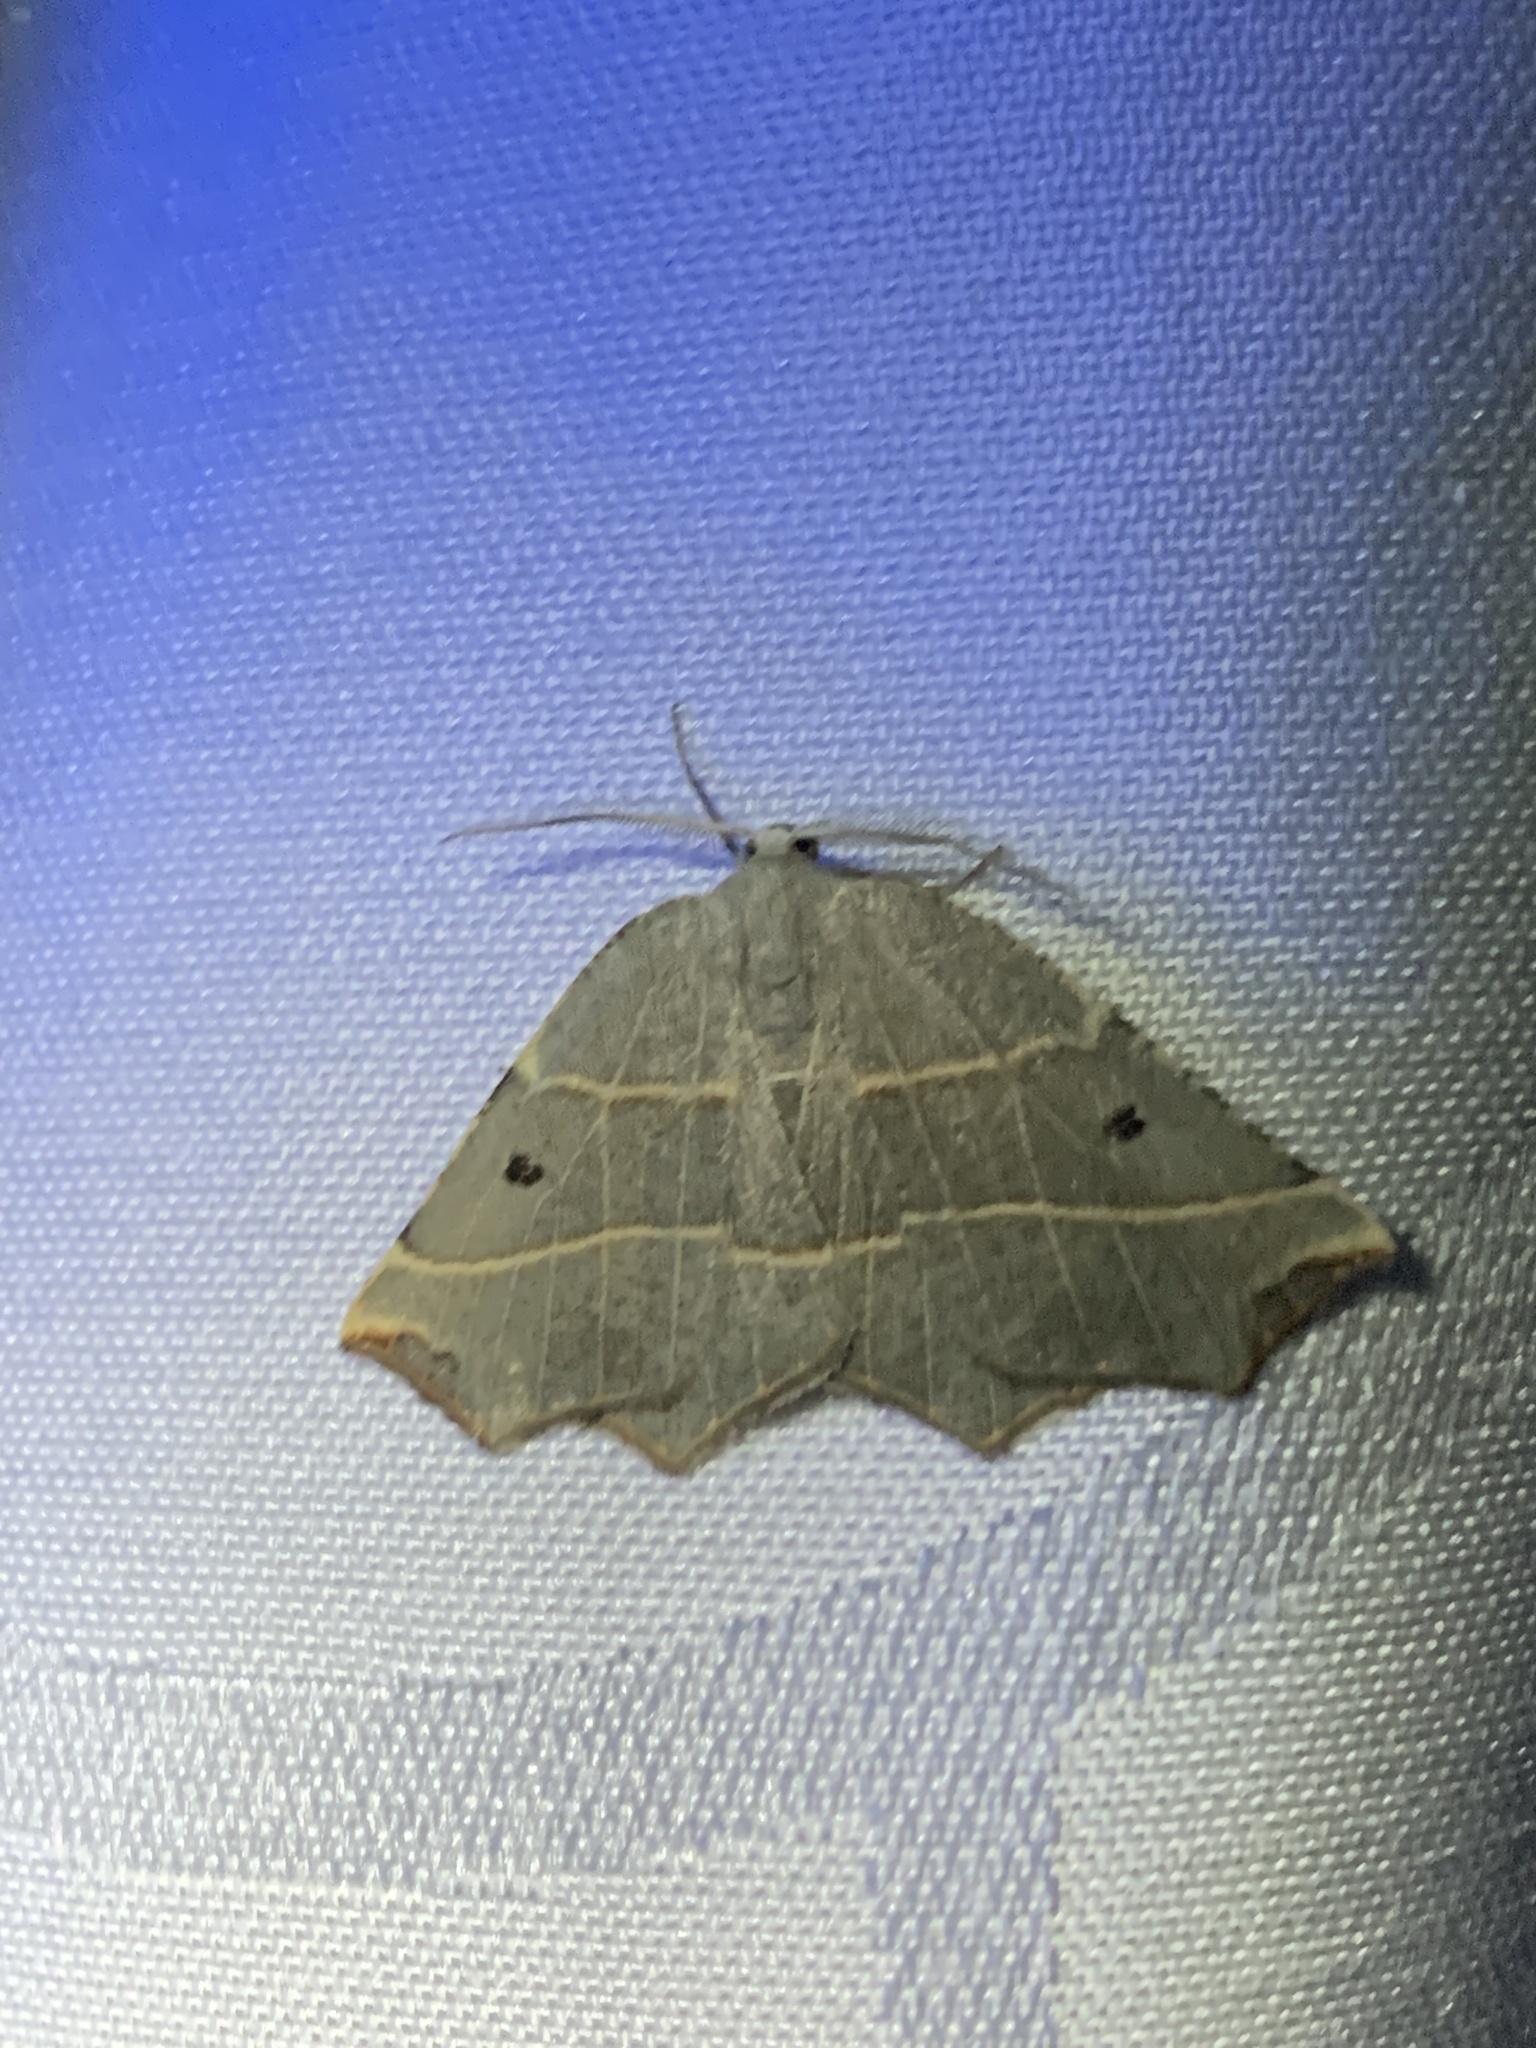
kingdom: Animalia
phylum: Arthropoda
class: Insecta
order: Lepidoptera
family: Geometridae
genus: Metanema
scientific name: Metanema inatomaria
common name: Pale metanema
